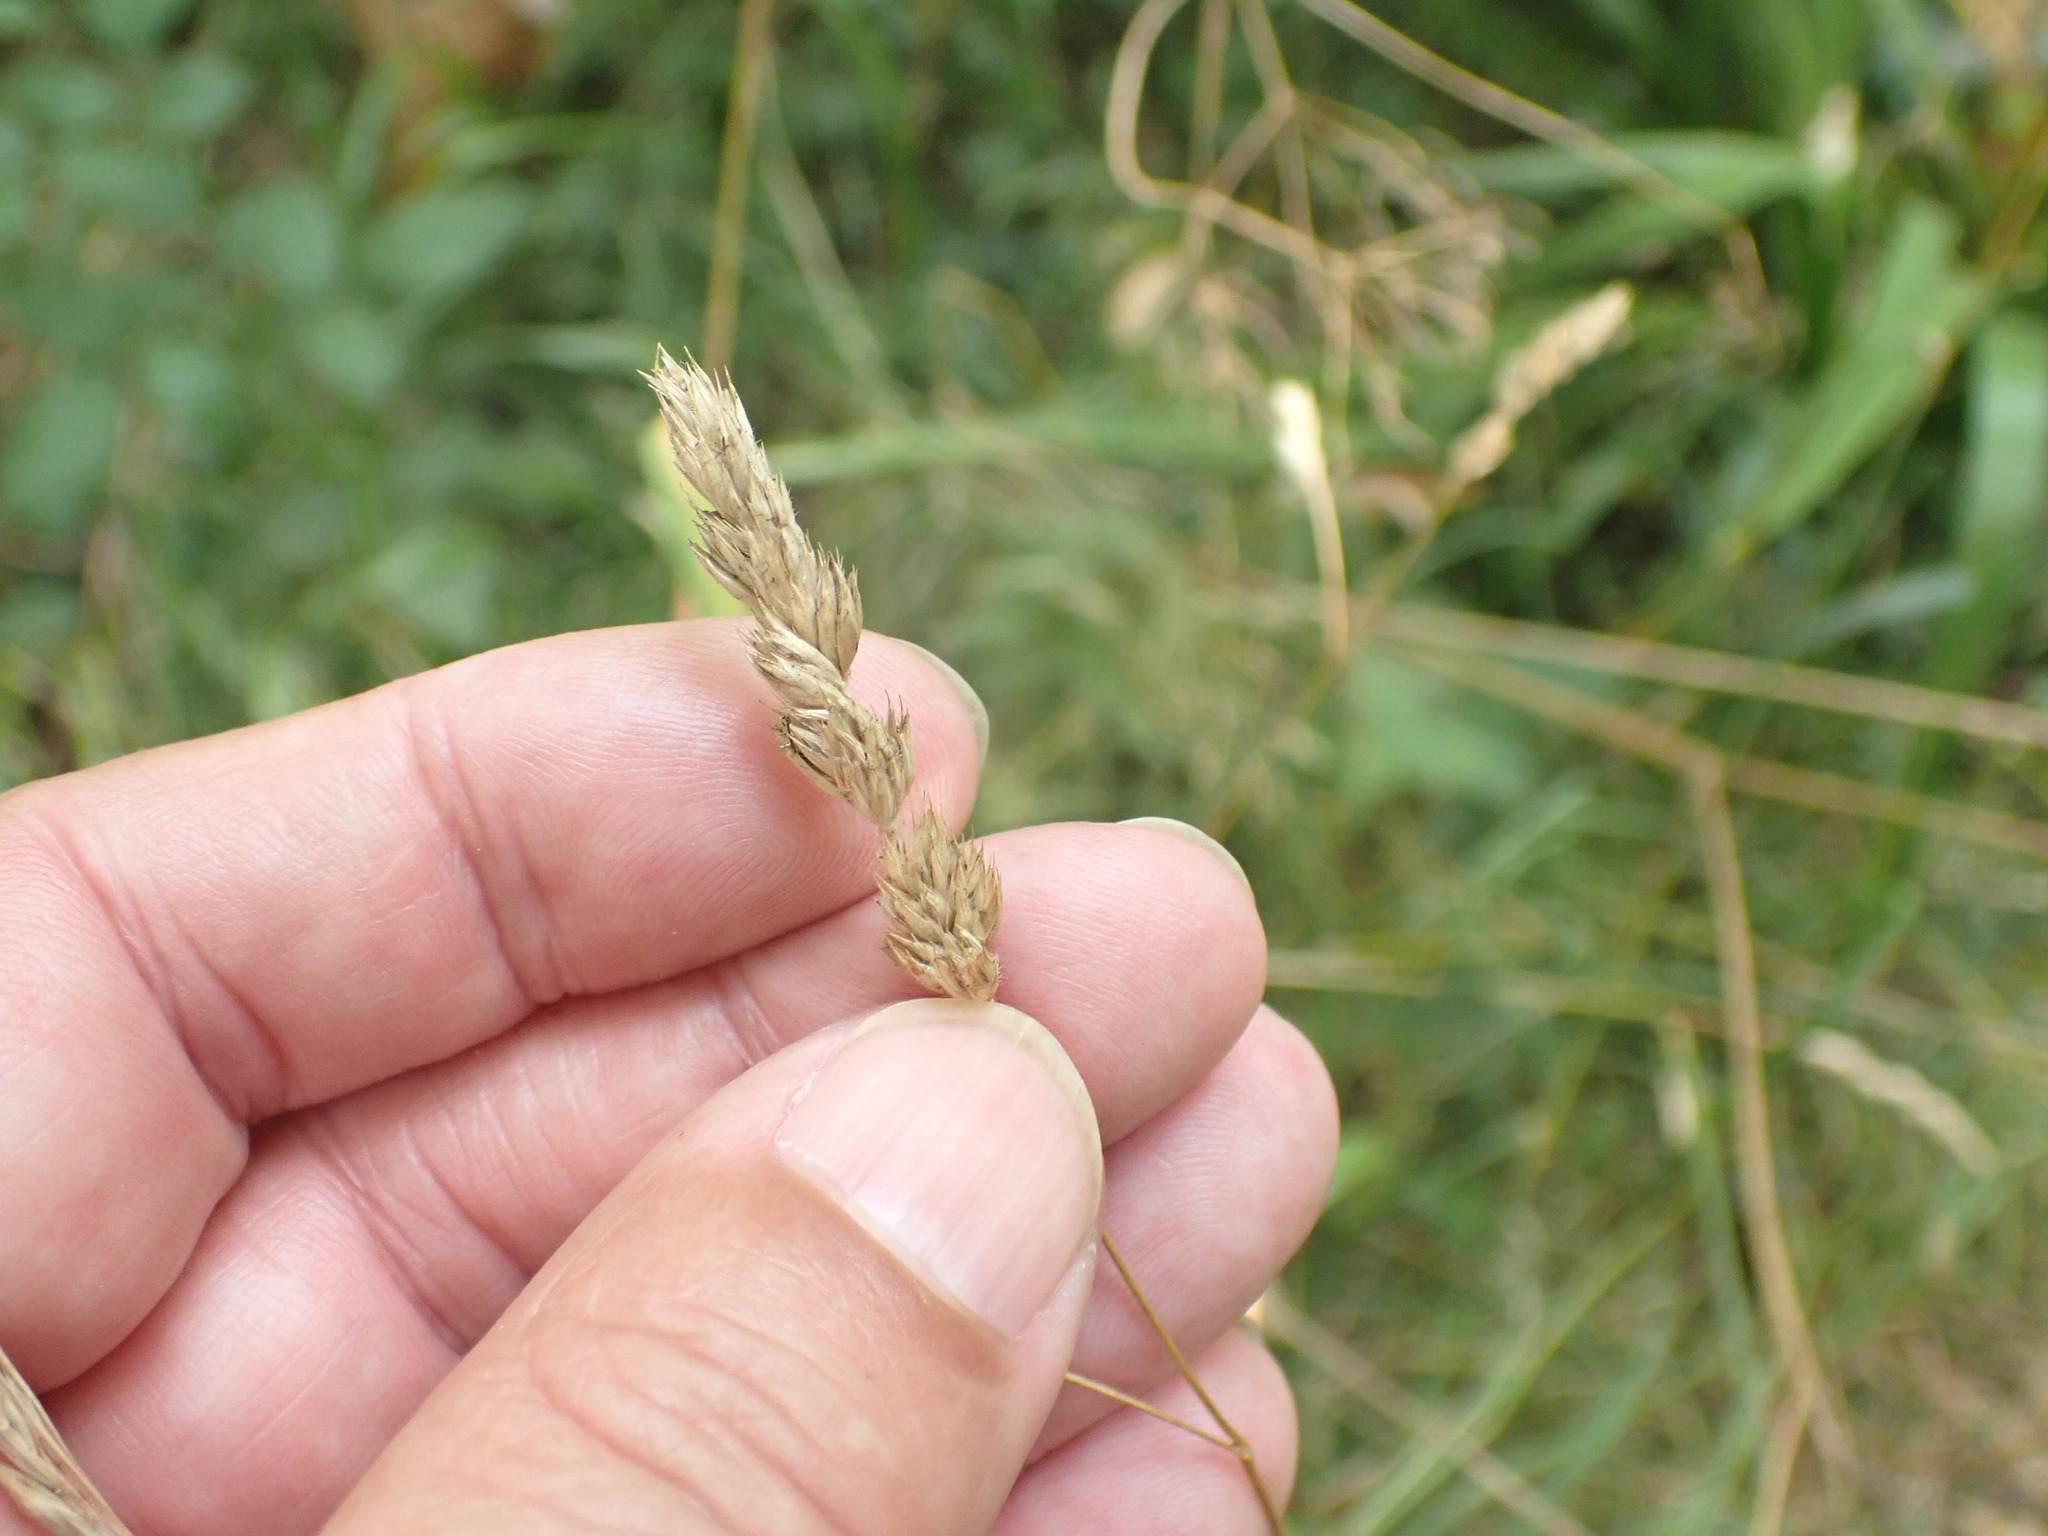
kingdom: Plantae
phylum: Tracheophyta
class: Liliopsida
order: Poales
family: Poaceae
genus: Dactylis
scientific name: Dactylis glomerata
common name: Orchardgrass
